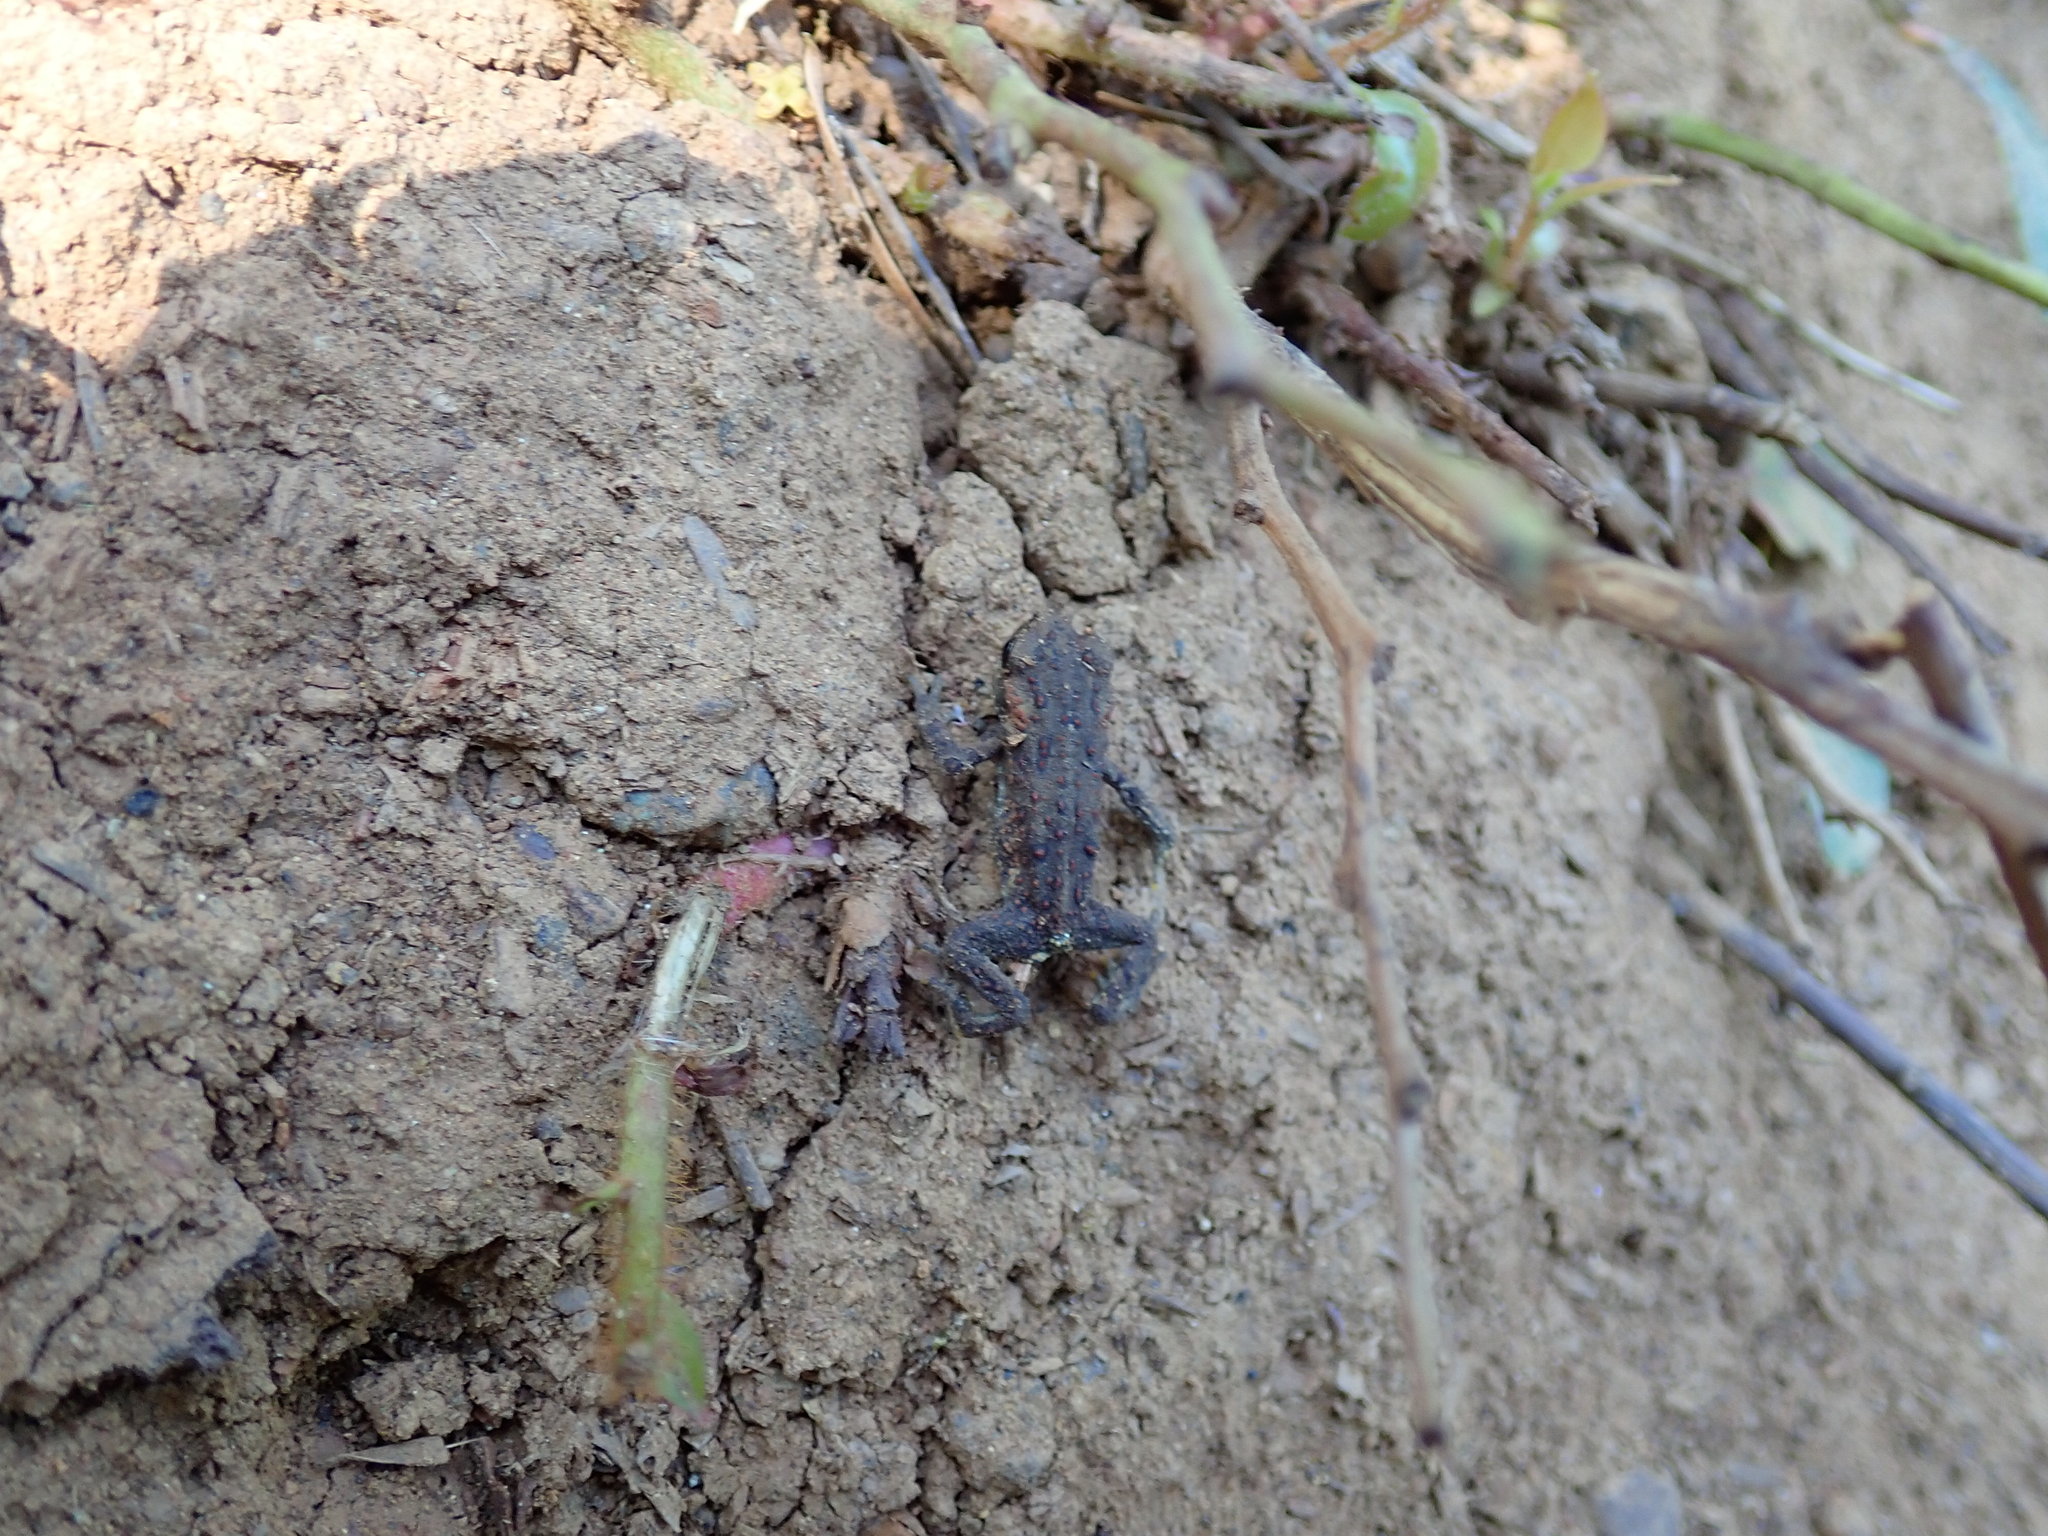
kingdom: Animalia
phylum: Chordata
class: Amphibia
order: Anura
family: Bufonidae
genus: Anaxyrus
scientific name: Anaxyrus boreas
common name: Western toad
